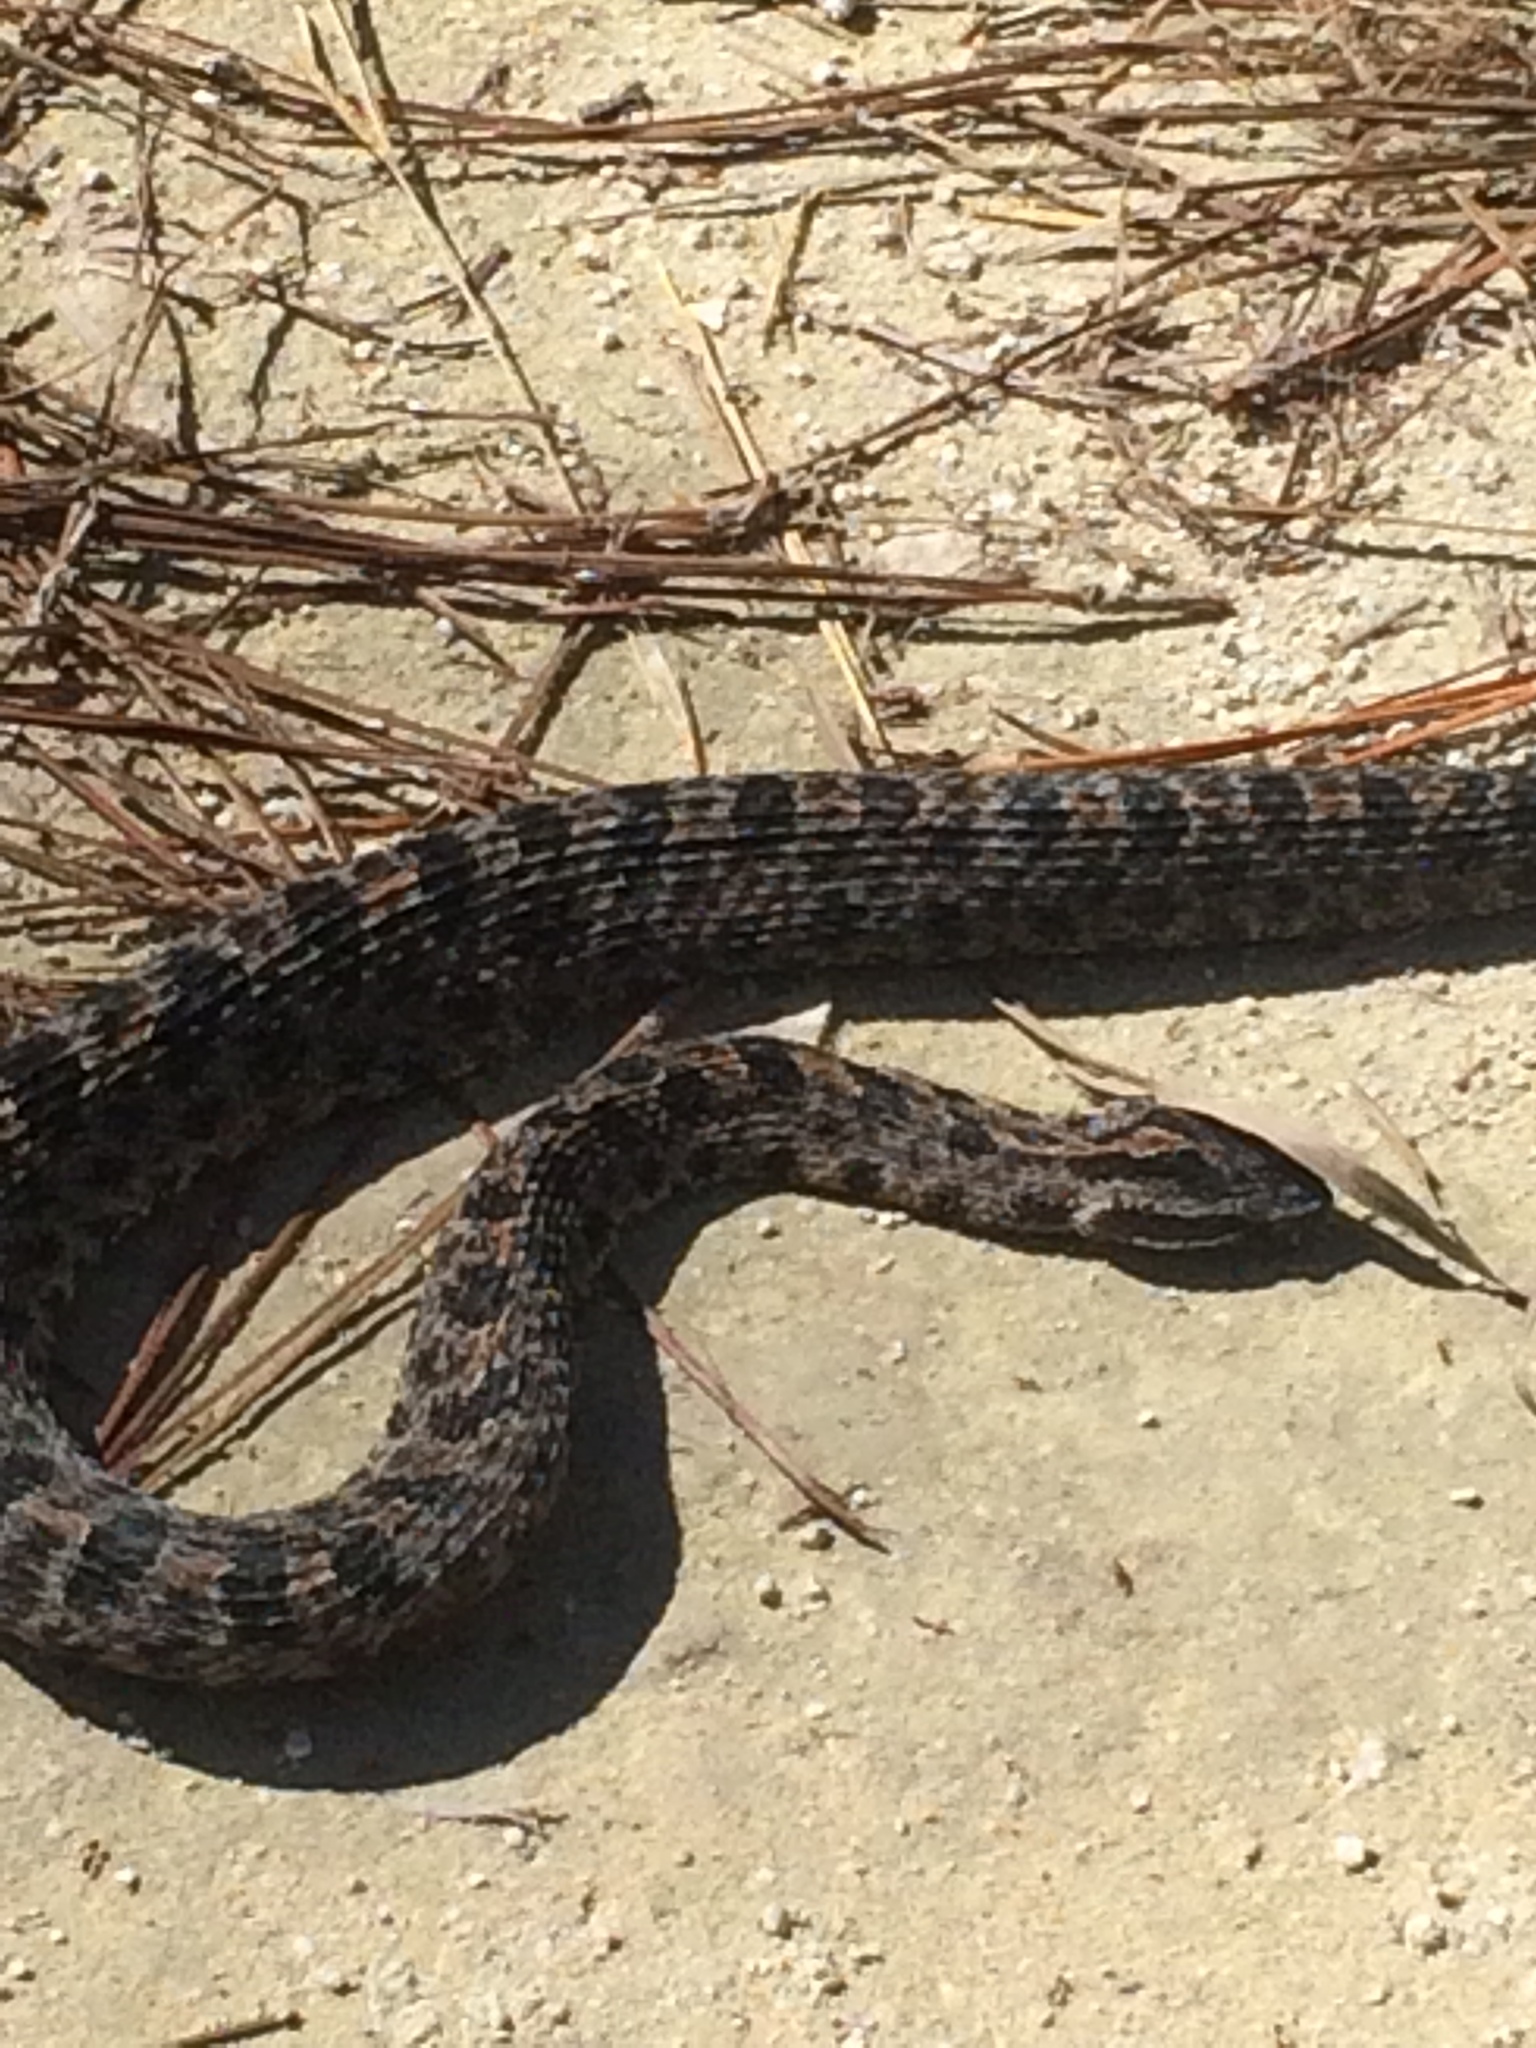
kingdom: Animalia
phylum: Chordata
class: Squamata
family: Viperidae
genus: Sistrurus
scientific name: Sistrurus miliarius
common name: Pygmy rattlesnake
